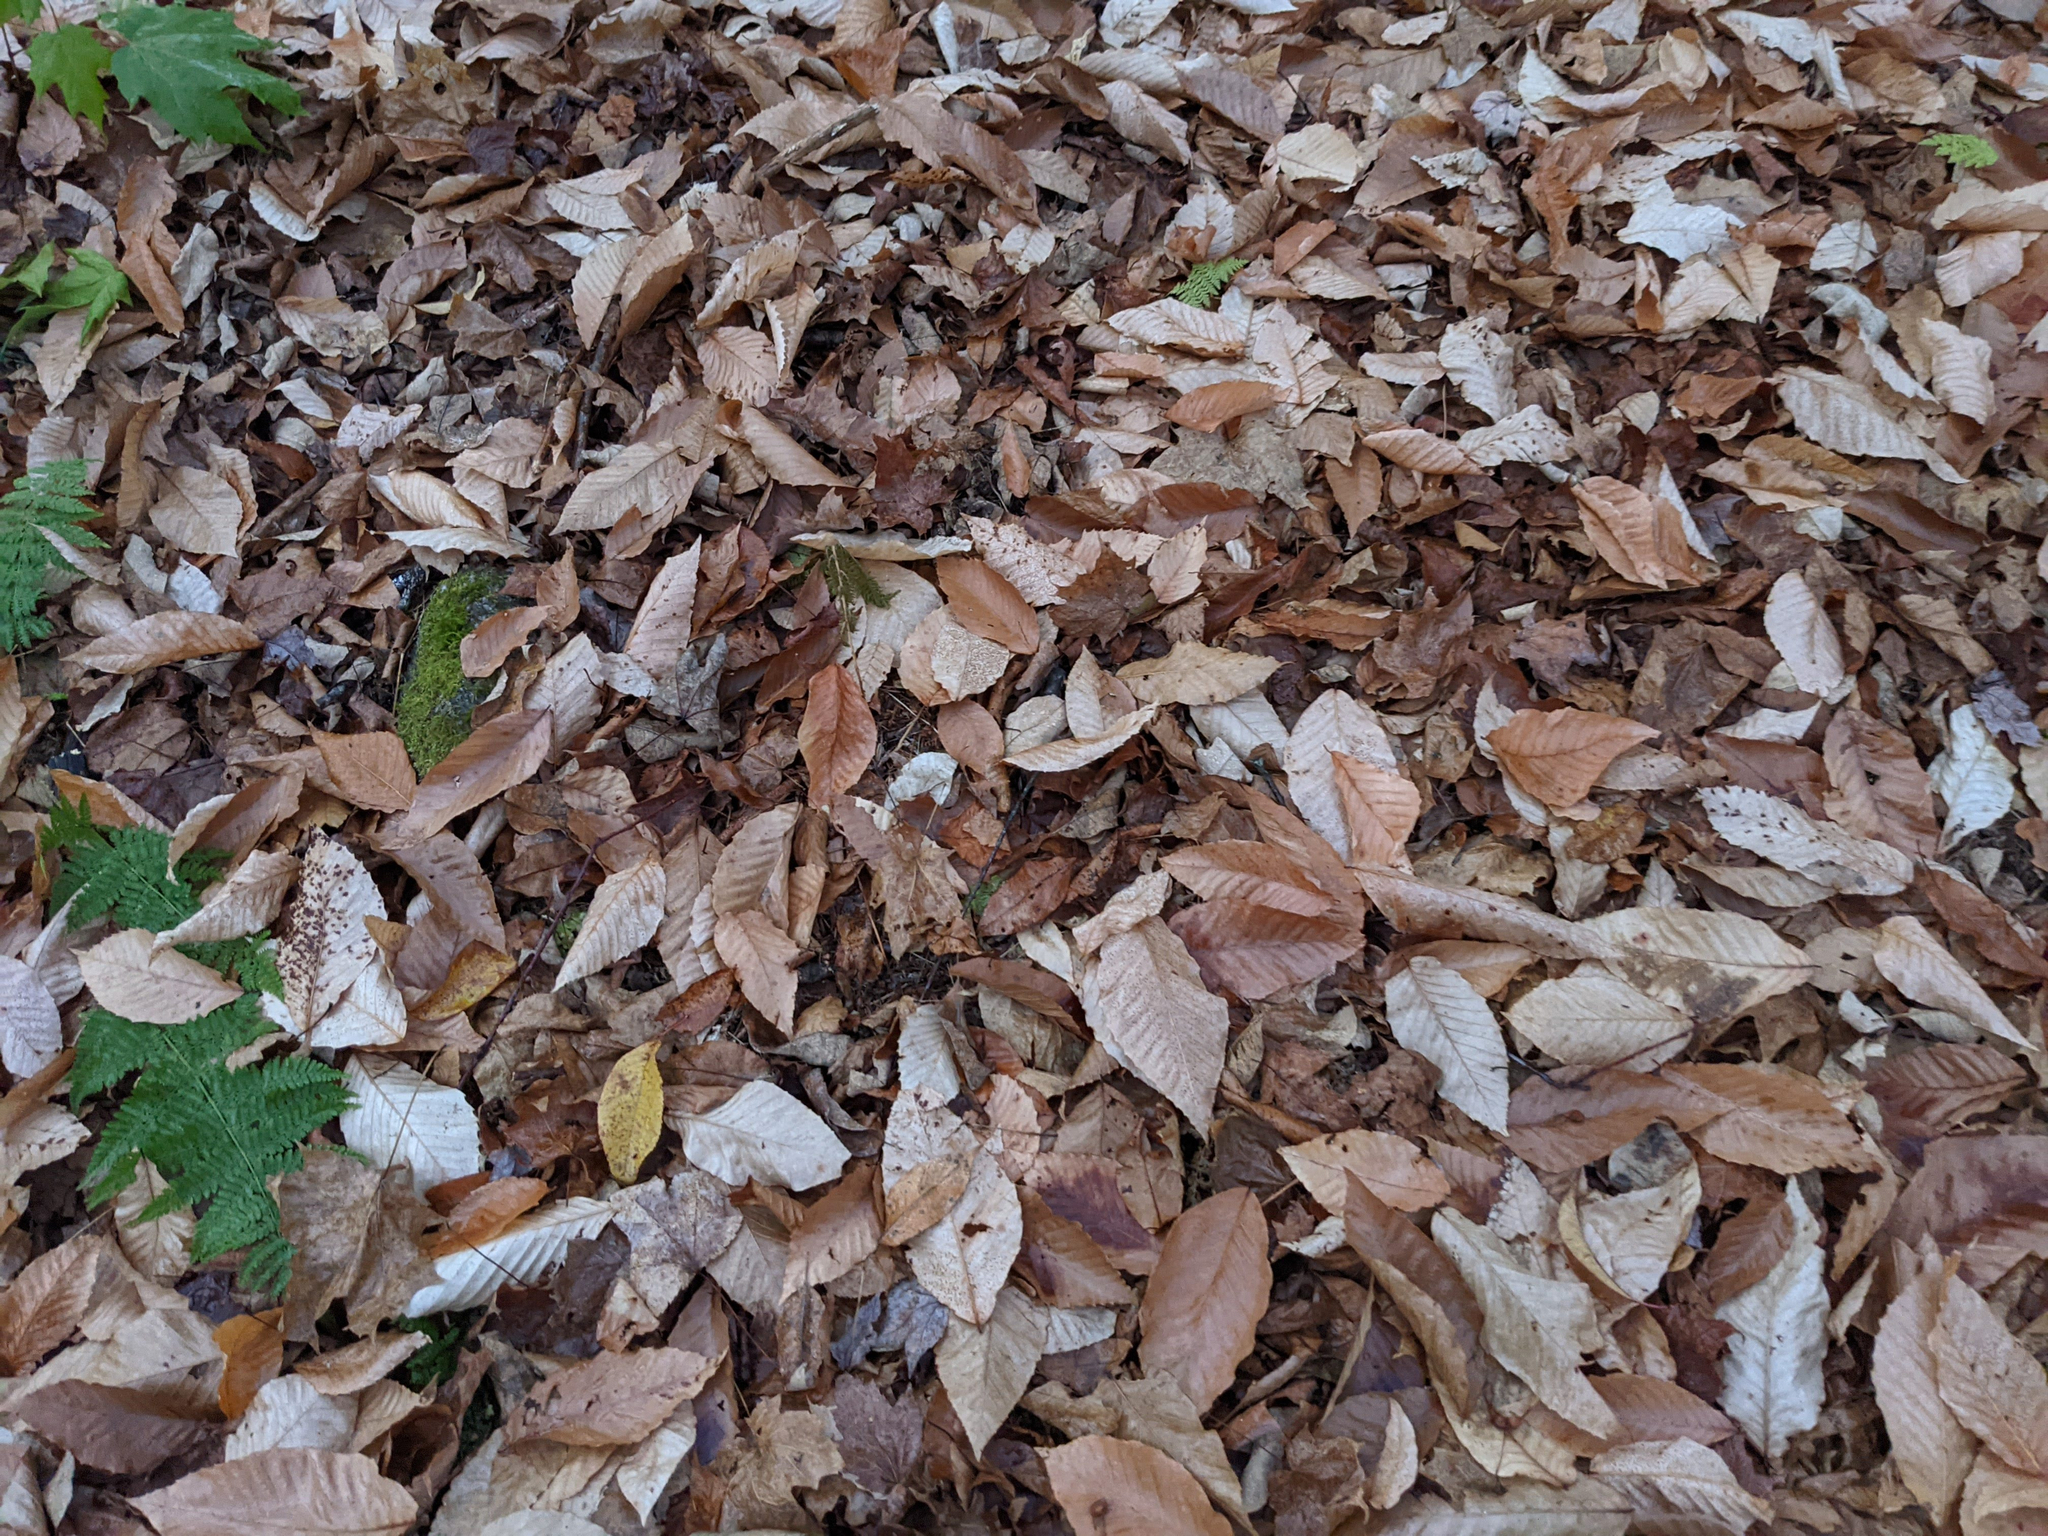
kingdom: Plantae
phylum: Tracheophyta
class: Polypodiopsida
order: Polypodiales
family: Dryopteridaceae
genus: Dryopteris
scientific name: Dryopteris intermedia
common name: Evergreen wood fern
